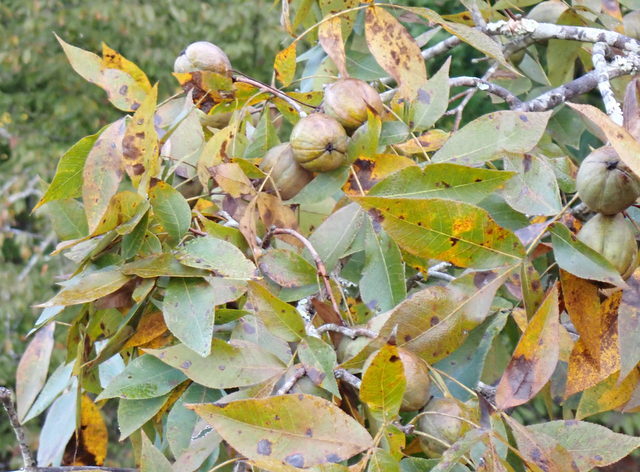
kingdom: Plantae
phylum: Tracheophyta
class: Magnoliopsida
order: Fagales
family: Juglandaceae
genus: Carya
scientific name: Carya glabra
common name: Pignut hickory
